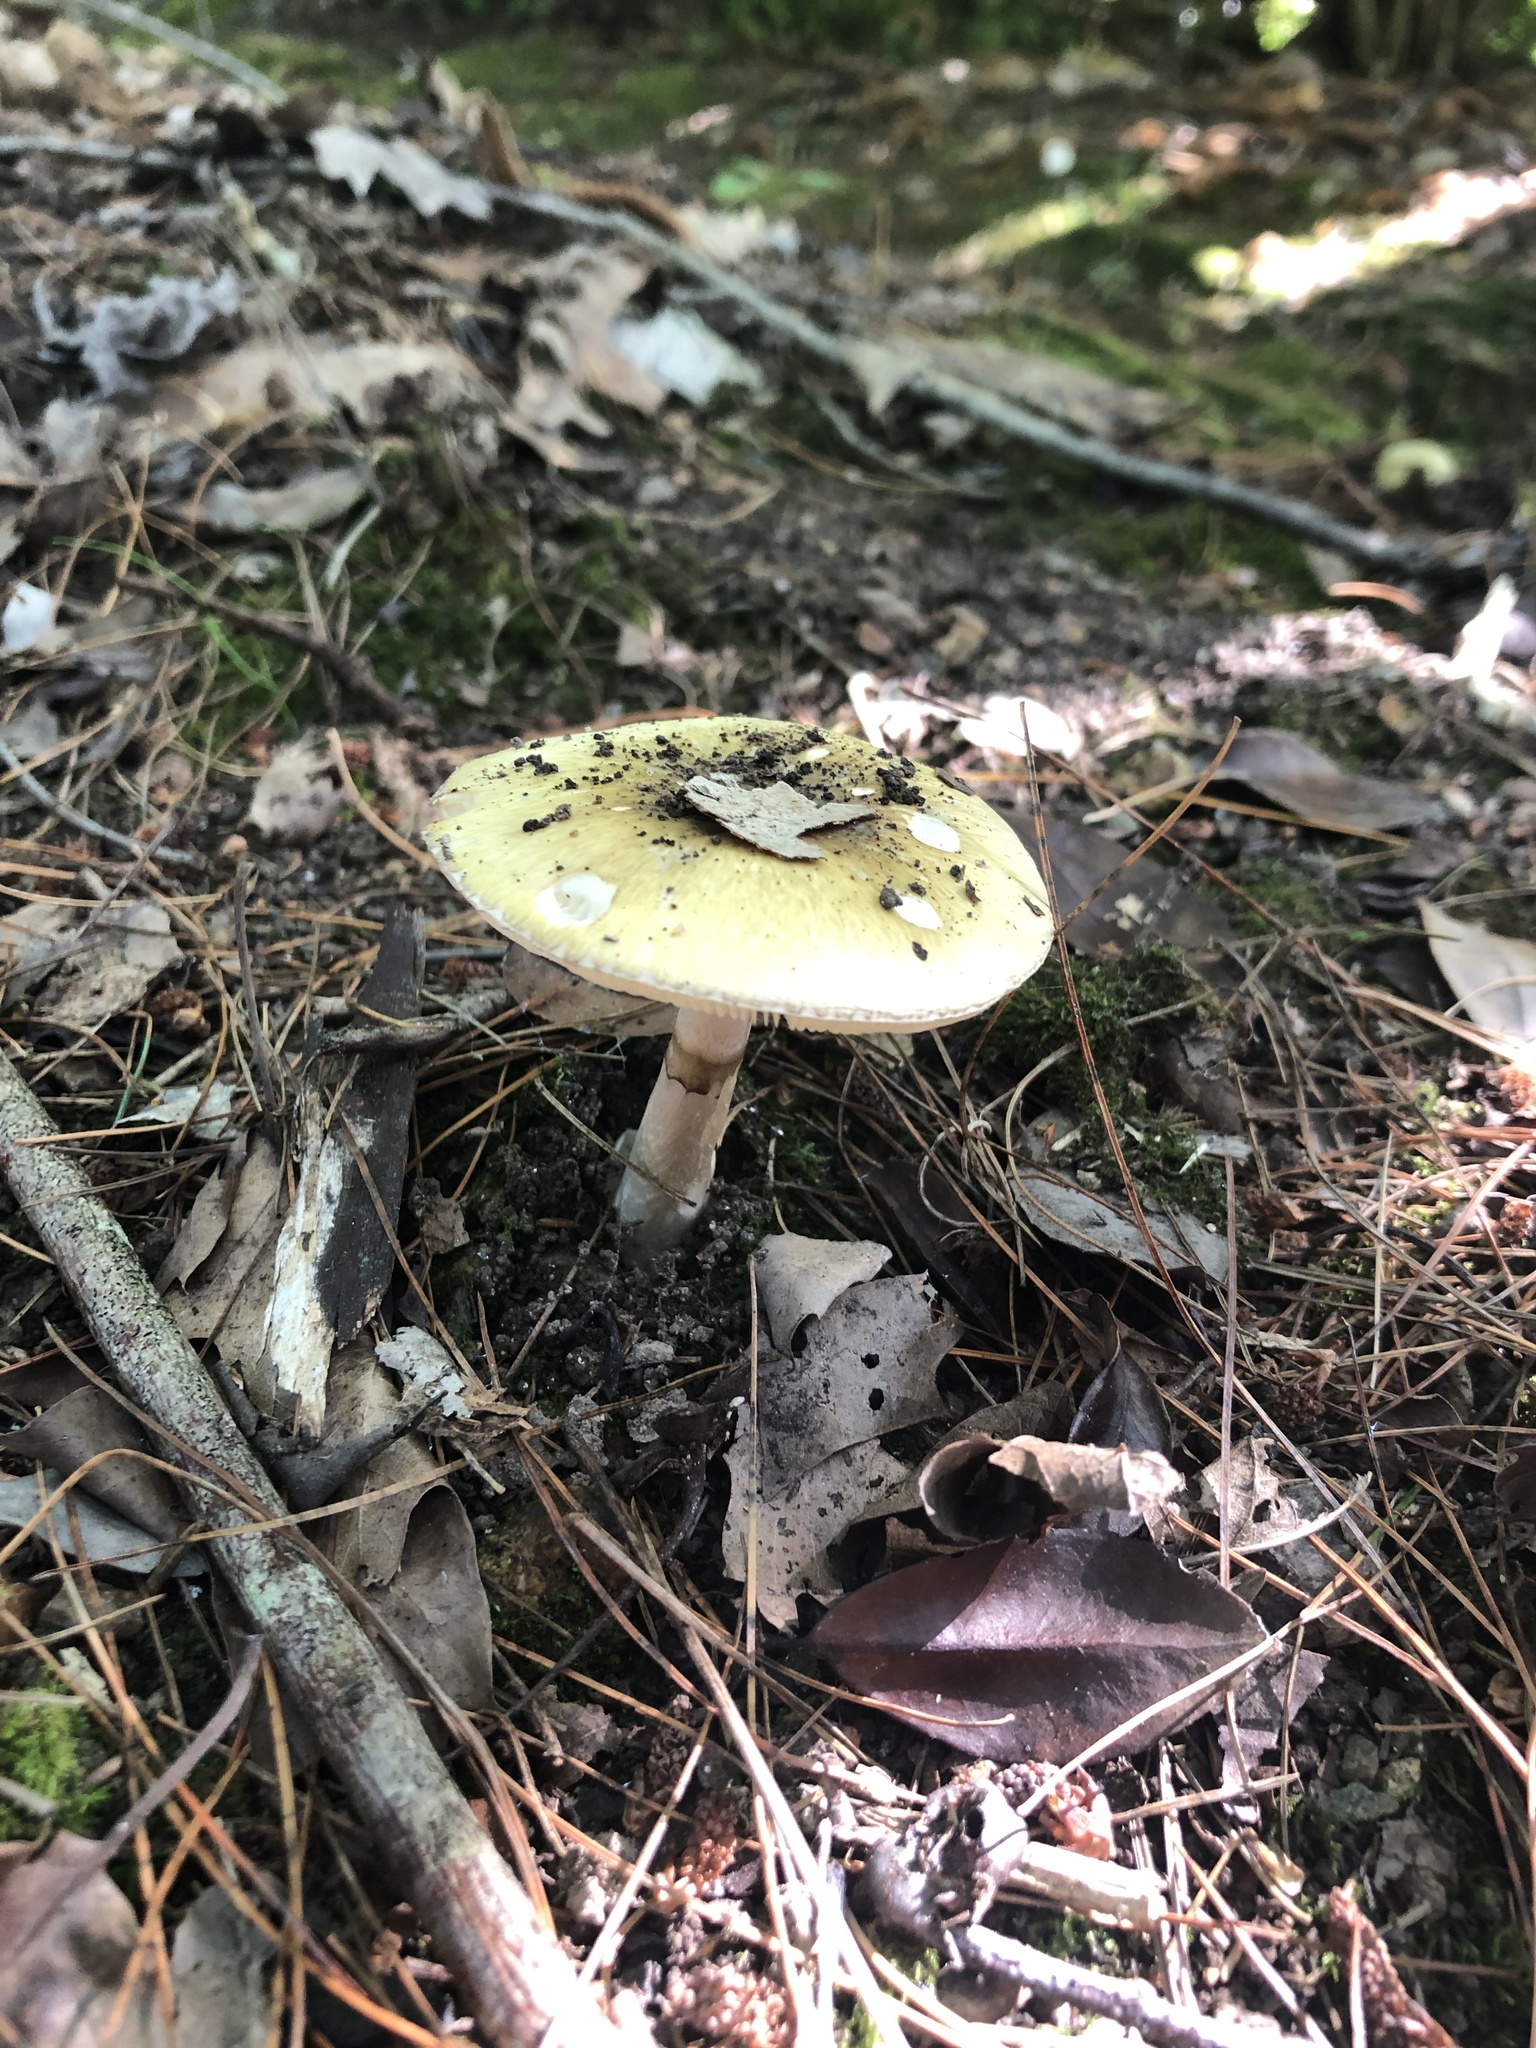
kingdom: Fungi
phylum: Basidiomycota
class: Agaricomycetes
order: Agaricales
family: Amanitaceae
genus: Amanita
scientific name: Amanita phalloides
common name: Death cap
